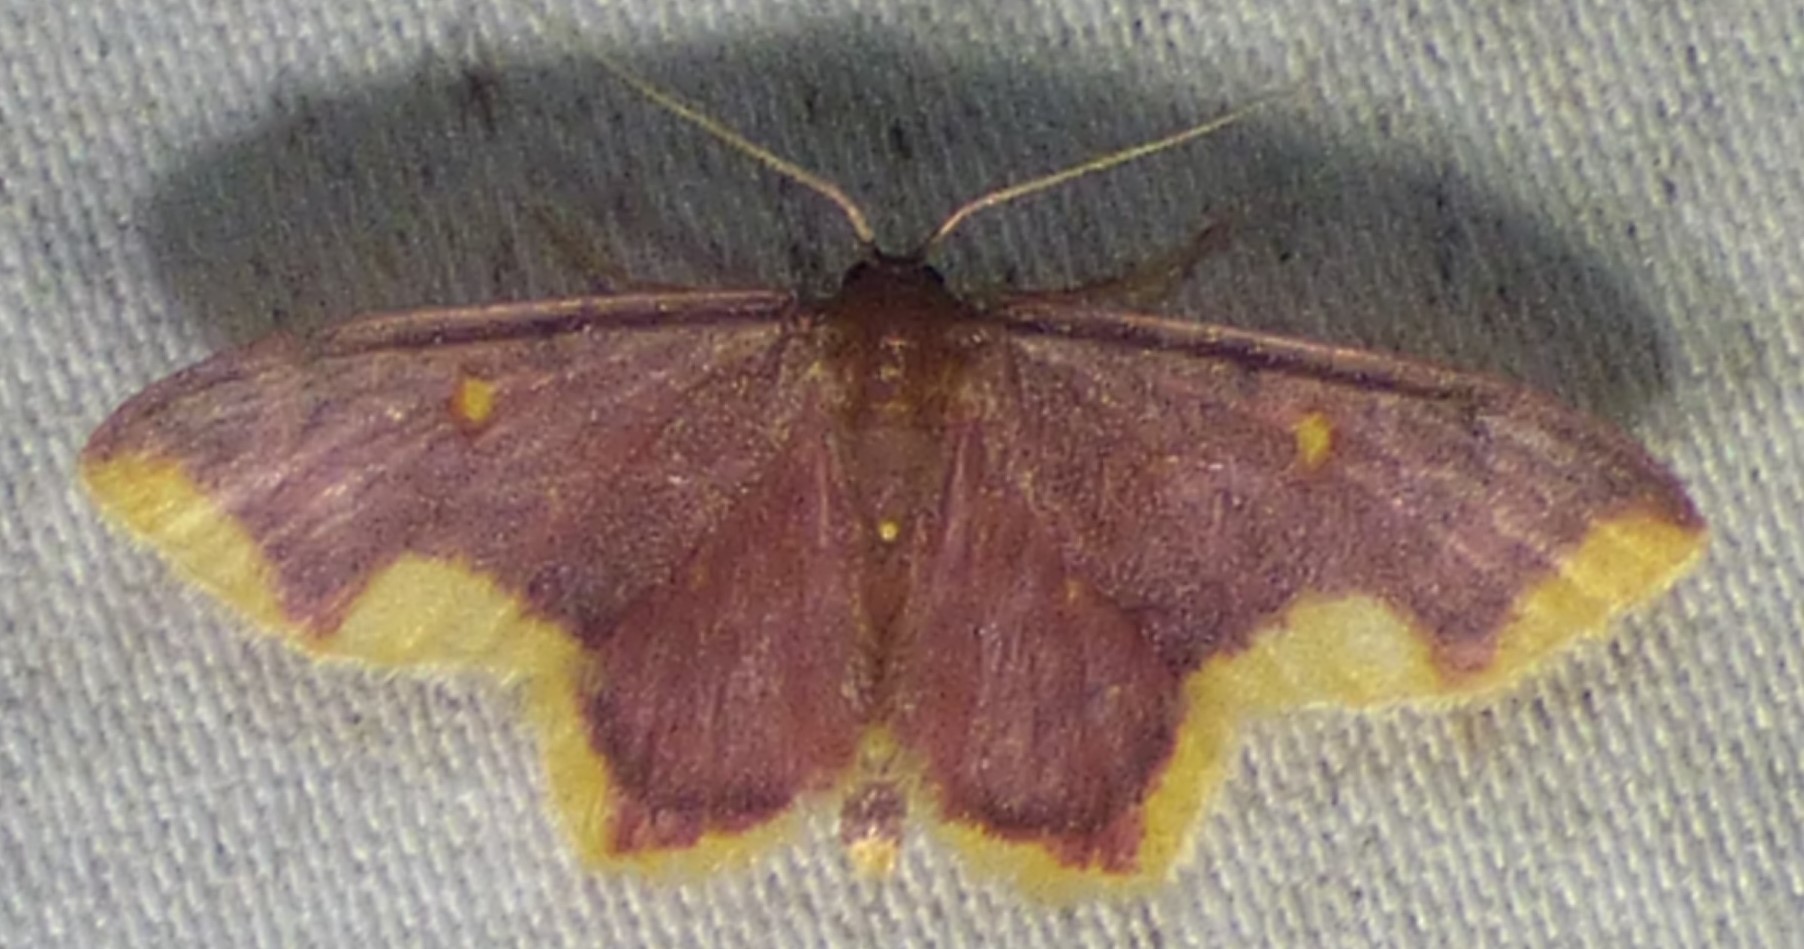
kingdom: Animalia
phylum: Arthropoda
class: Insecta
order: Lepidoptera
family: Geometridae
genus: Lophosis
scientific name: Lophosis labeculata
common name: Stained lophosis moth
